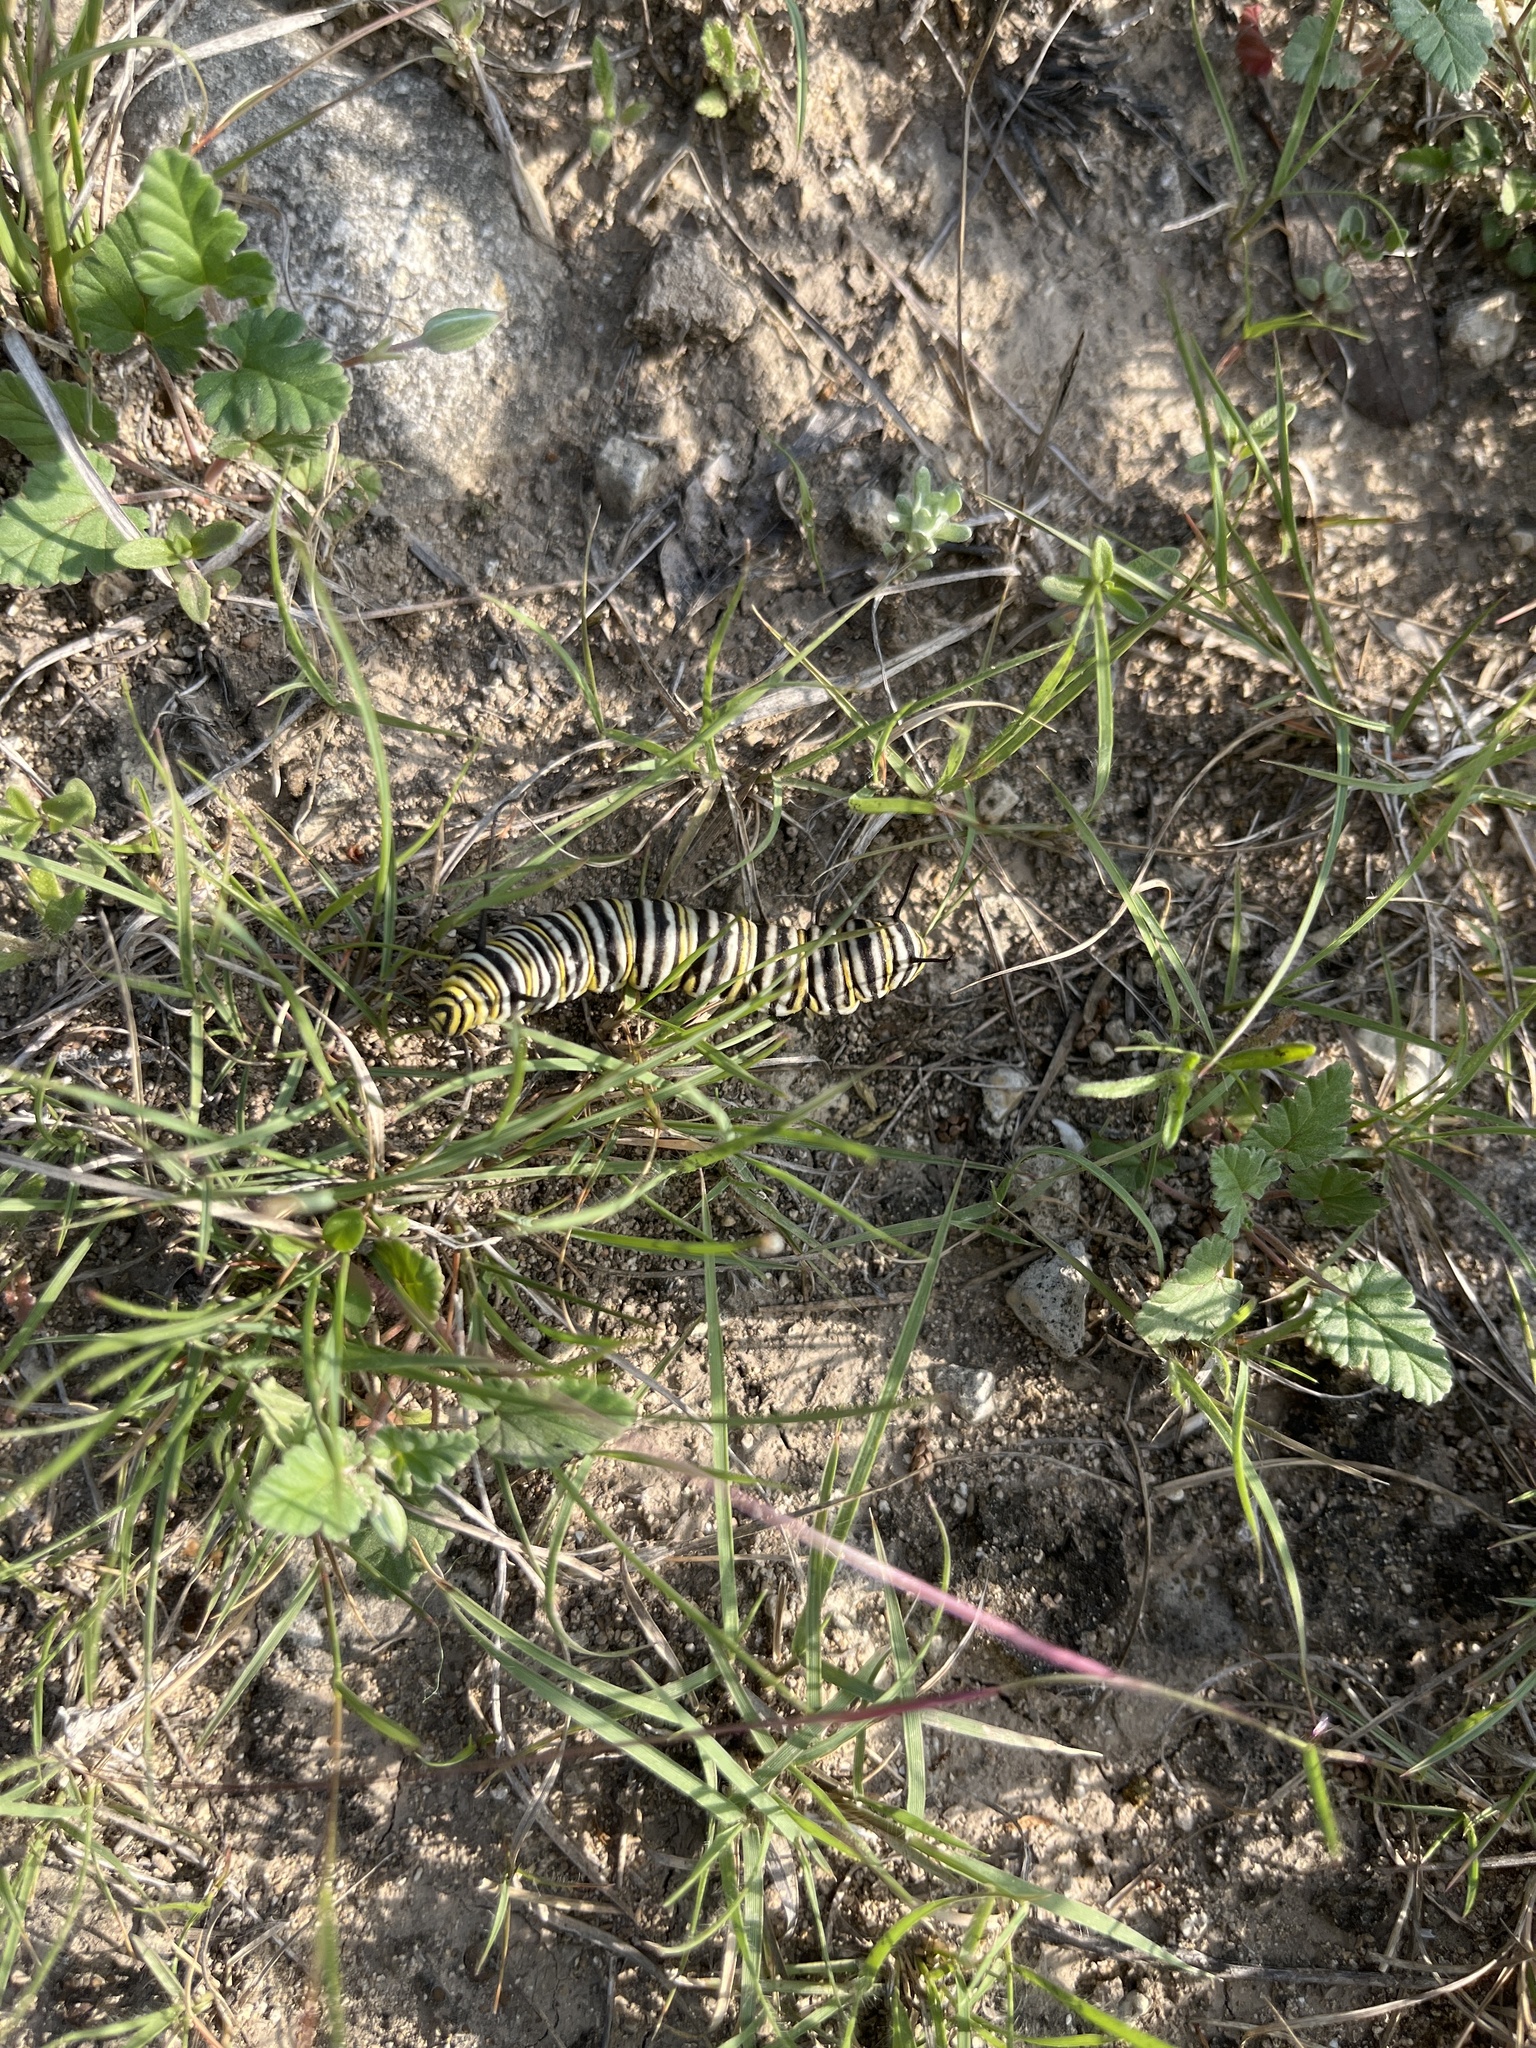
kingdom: Animalia
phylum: Arthropoda
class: Insecta
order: Lepidoptera
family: Nymphalidae
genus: Danaus
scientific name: Danaus plexippus
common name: Monarch
